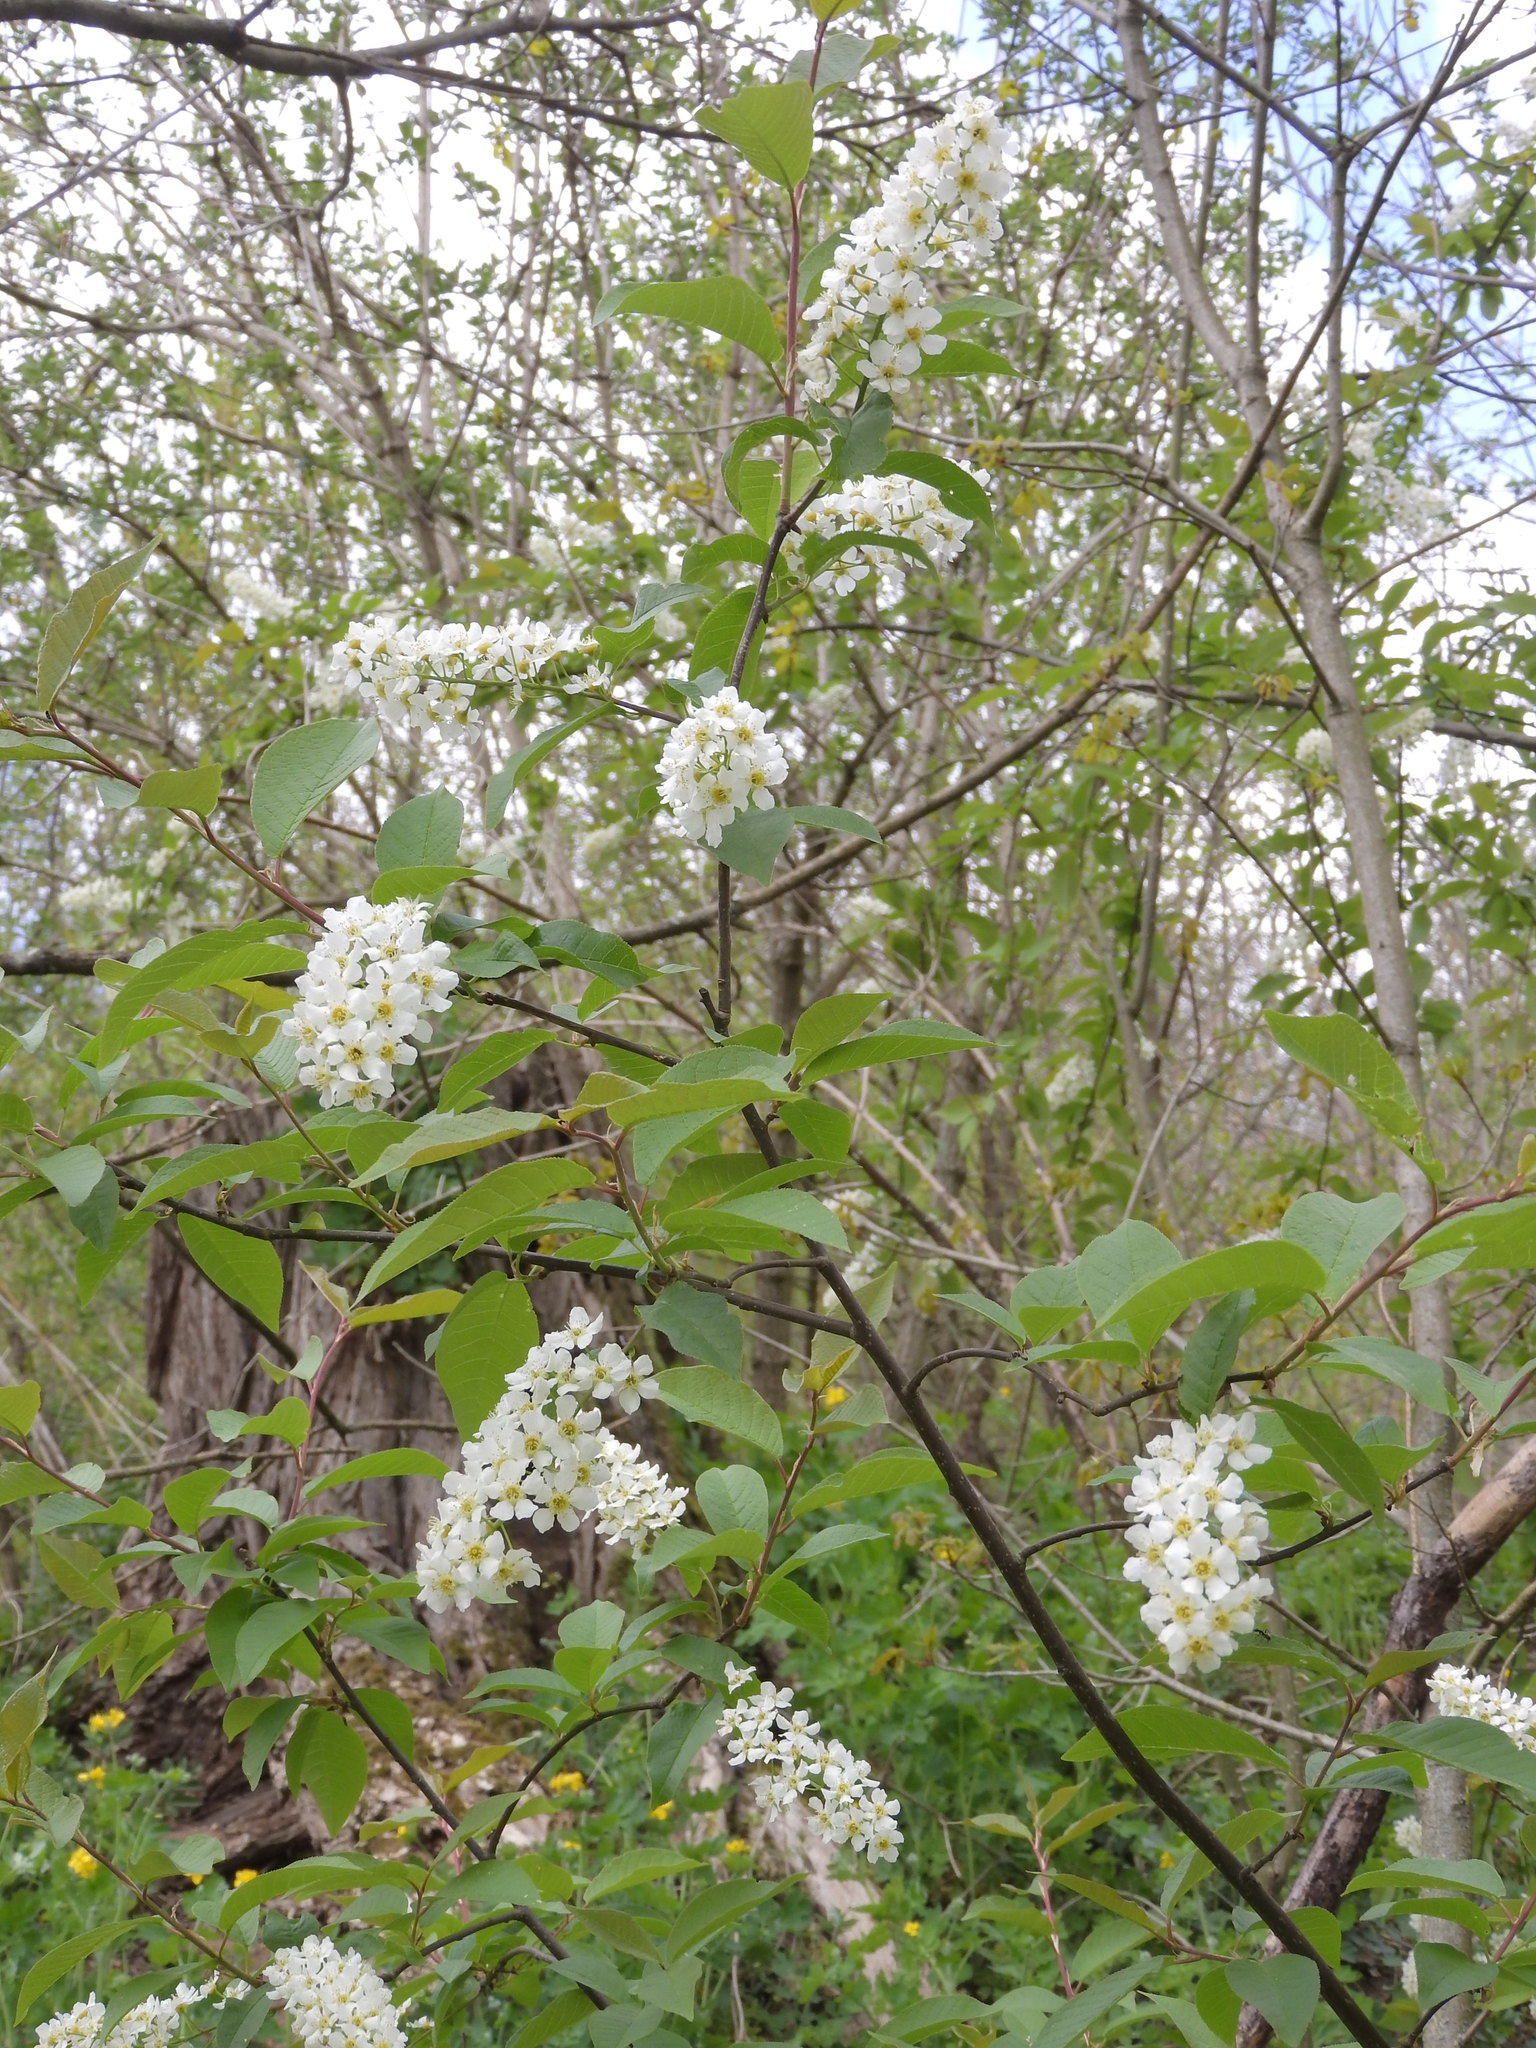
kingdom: Plantae
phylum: Tracheophyta
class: Magnoliopsida
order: Rosales
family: Rosaceae
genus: Prunus
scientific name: Prunus padus
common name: Bird cherry
